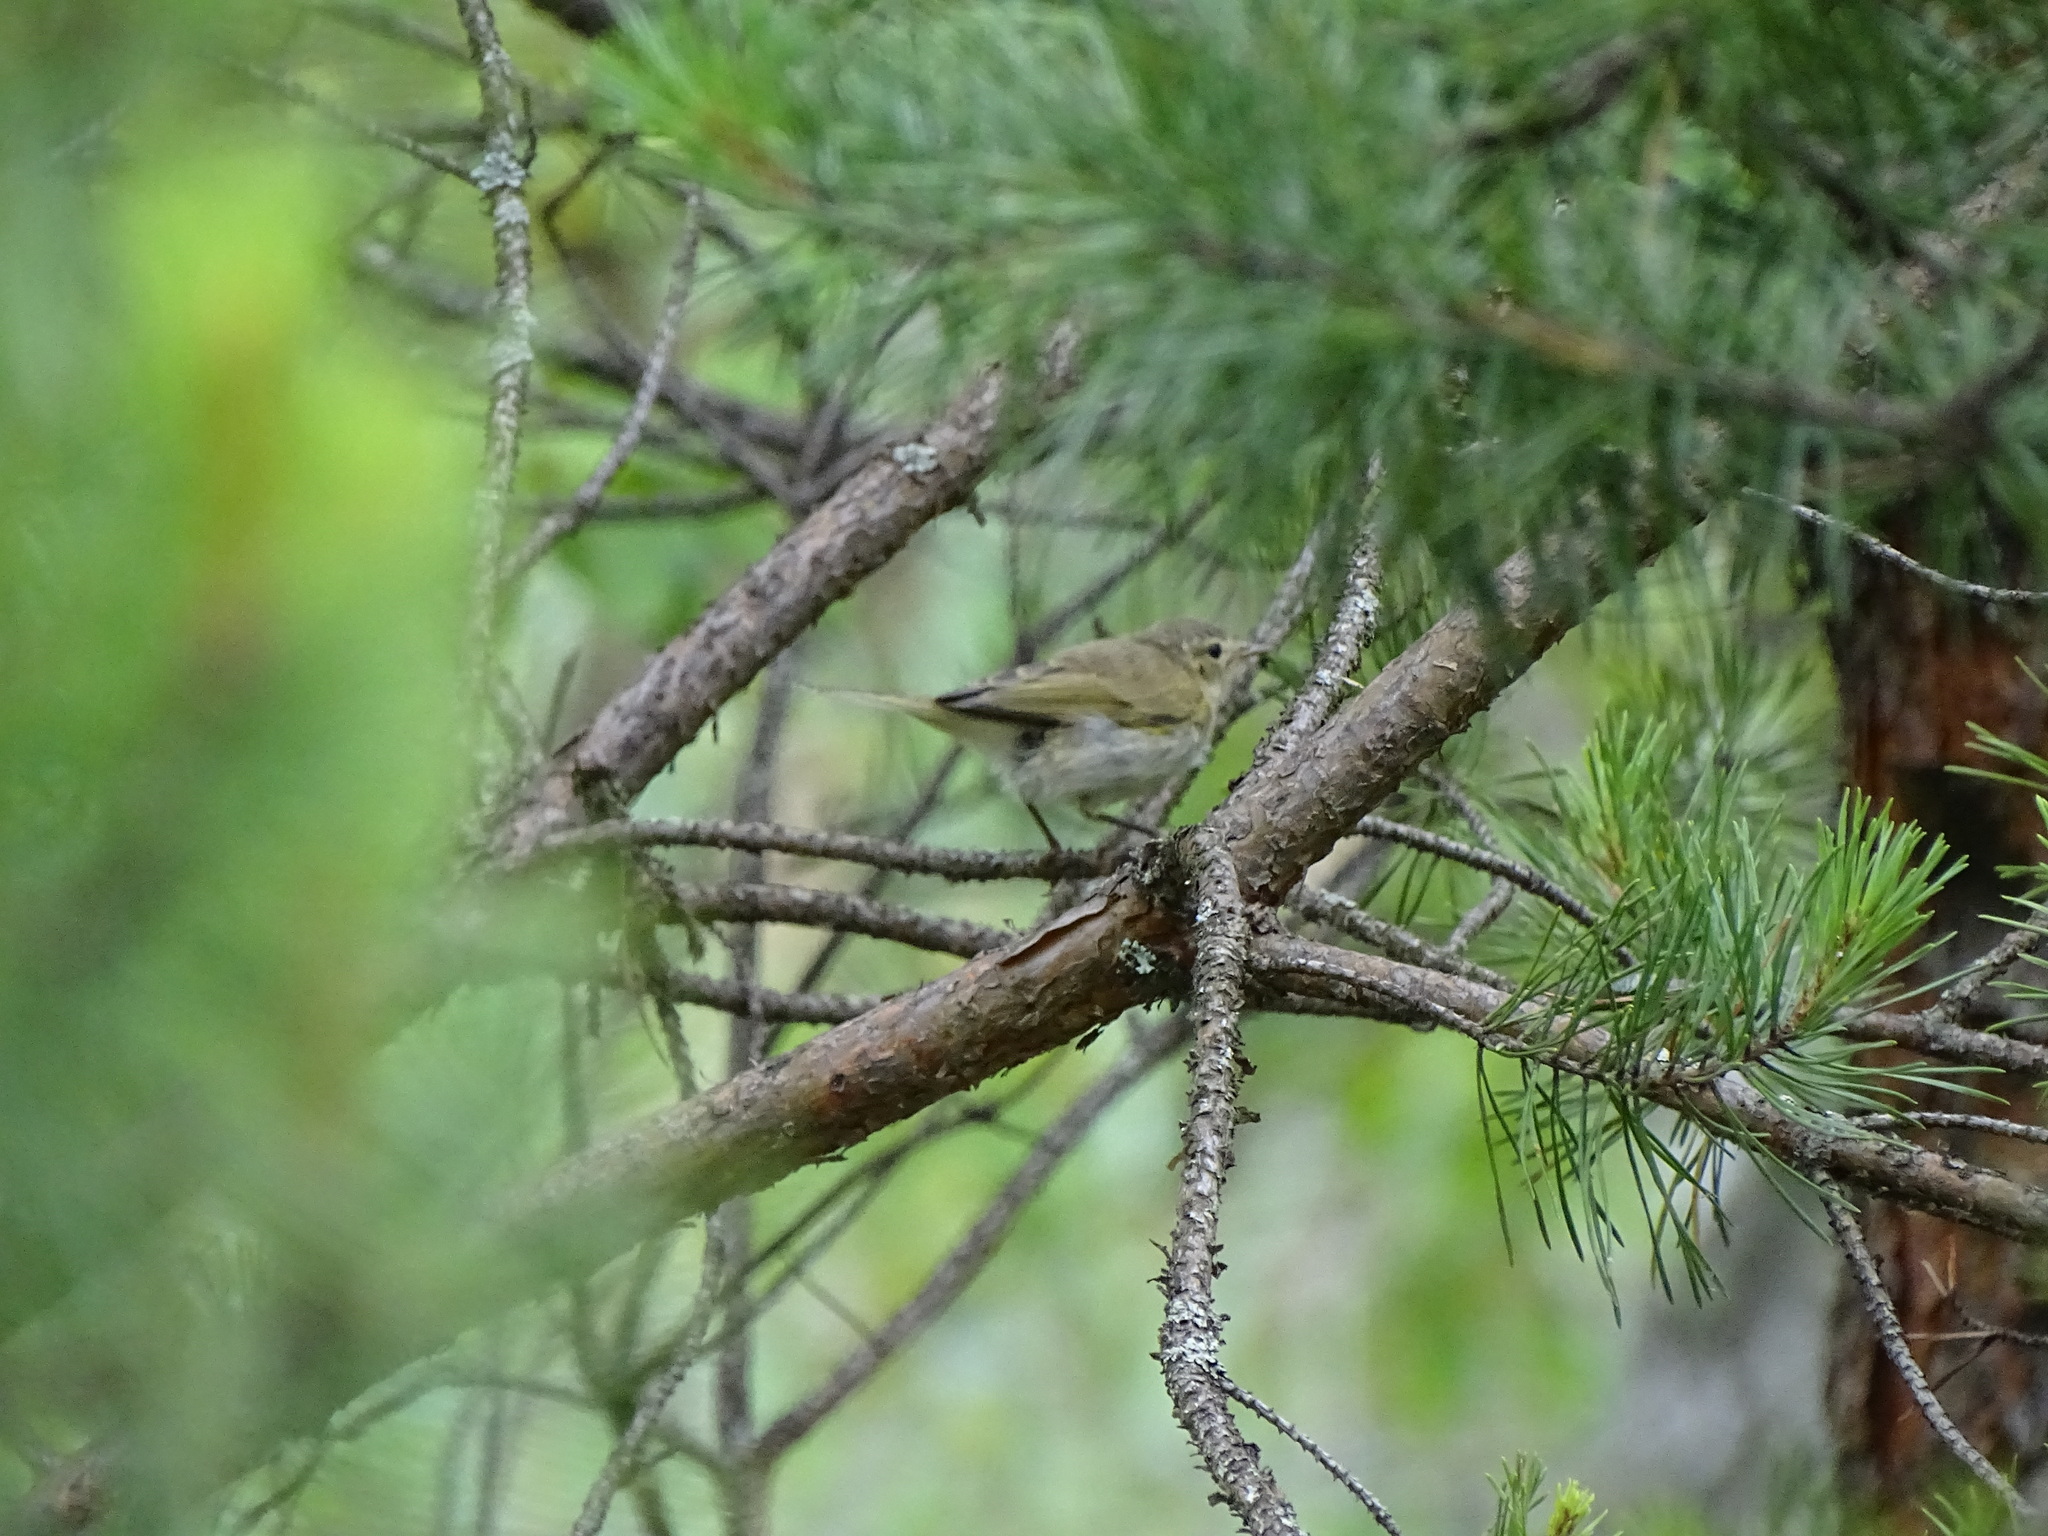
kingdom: Animalia
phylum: Chordata
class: Aves
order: Passeriformes
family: Phylloscopidae
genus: Phylloscopus
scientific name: Phylloscopus collybita
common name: Common chiffchaff
